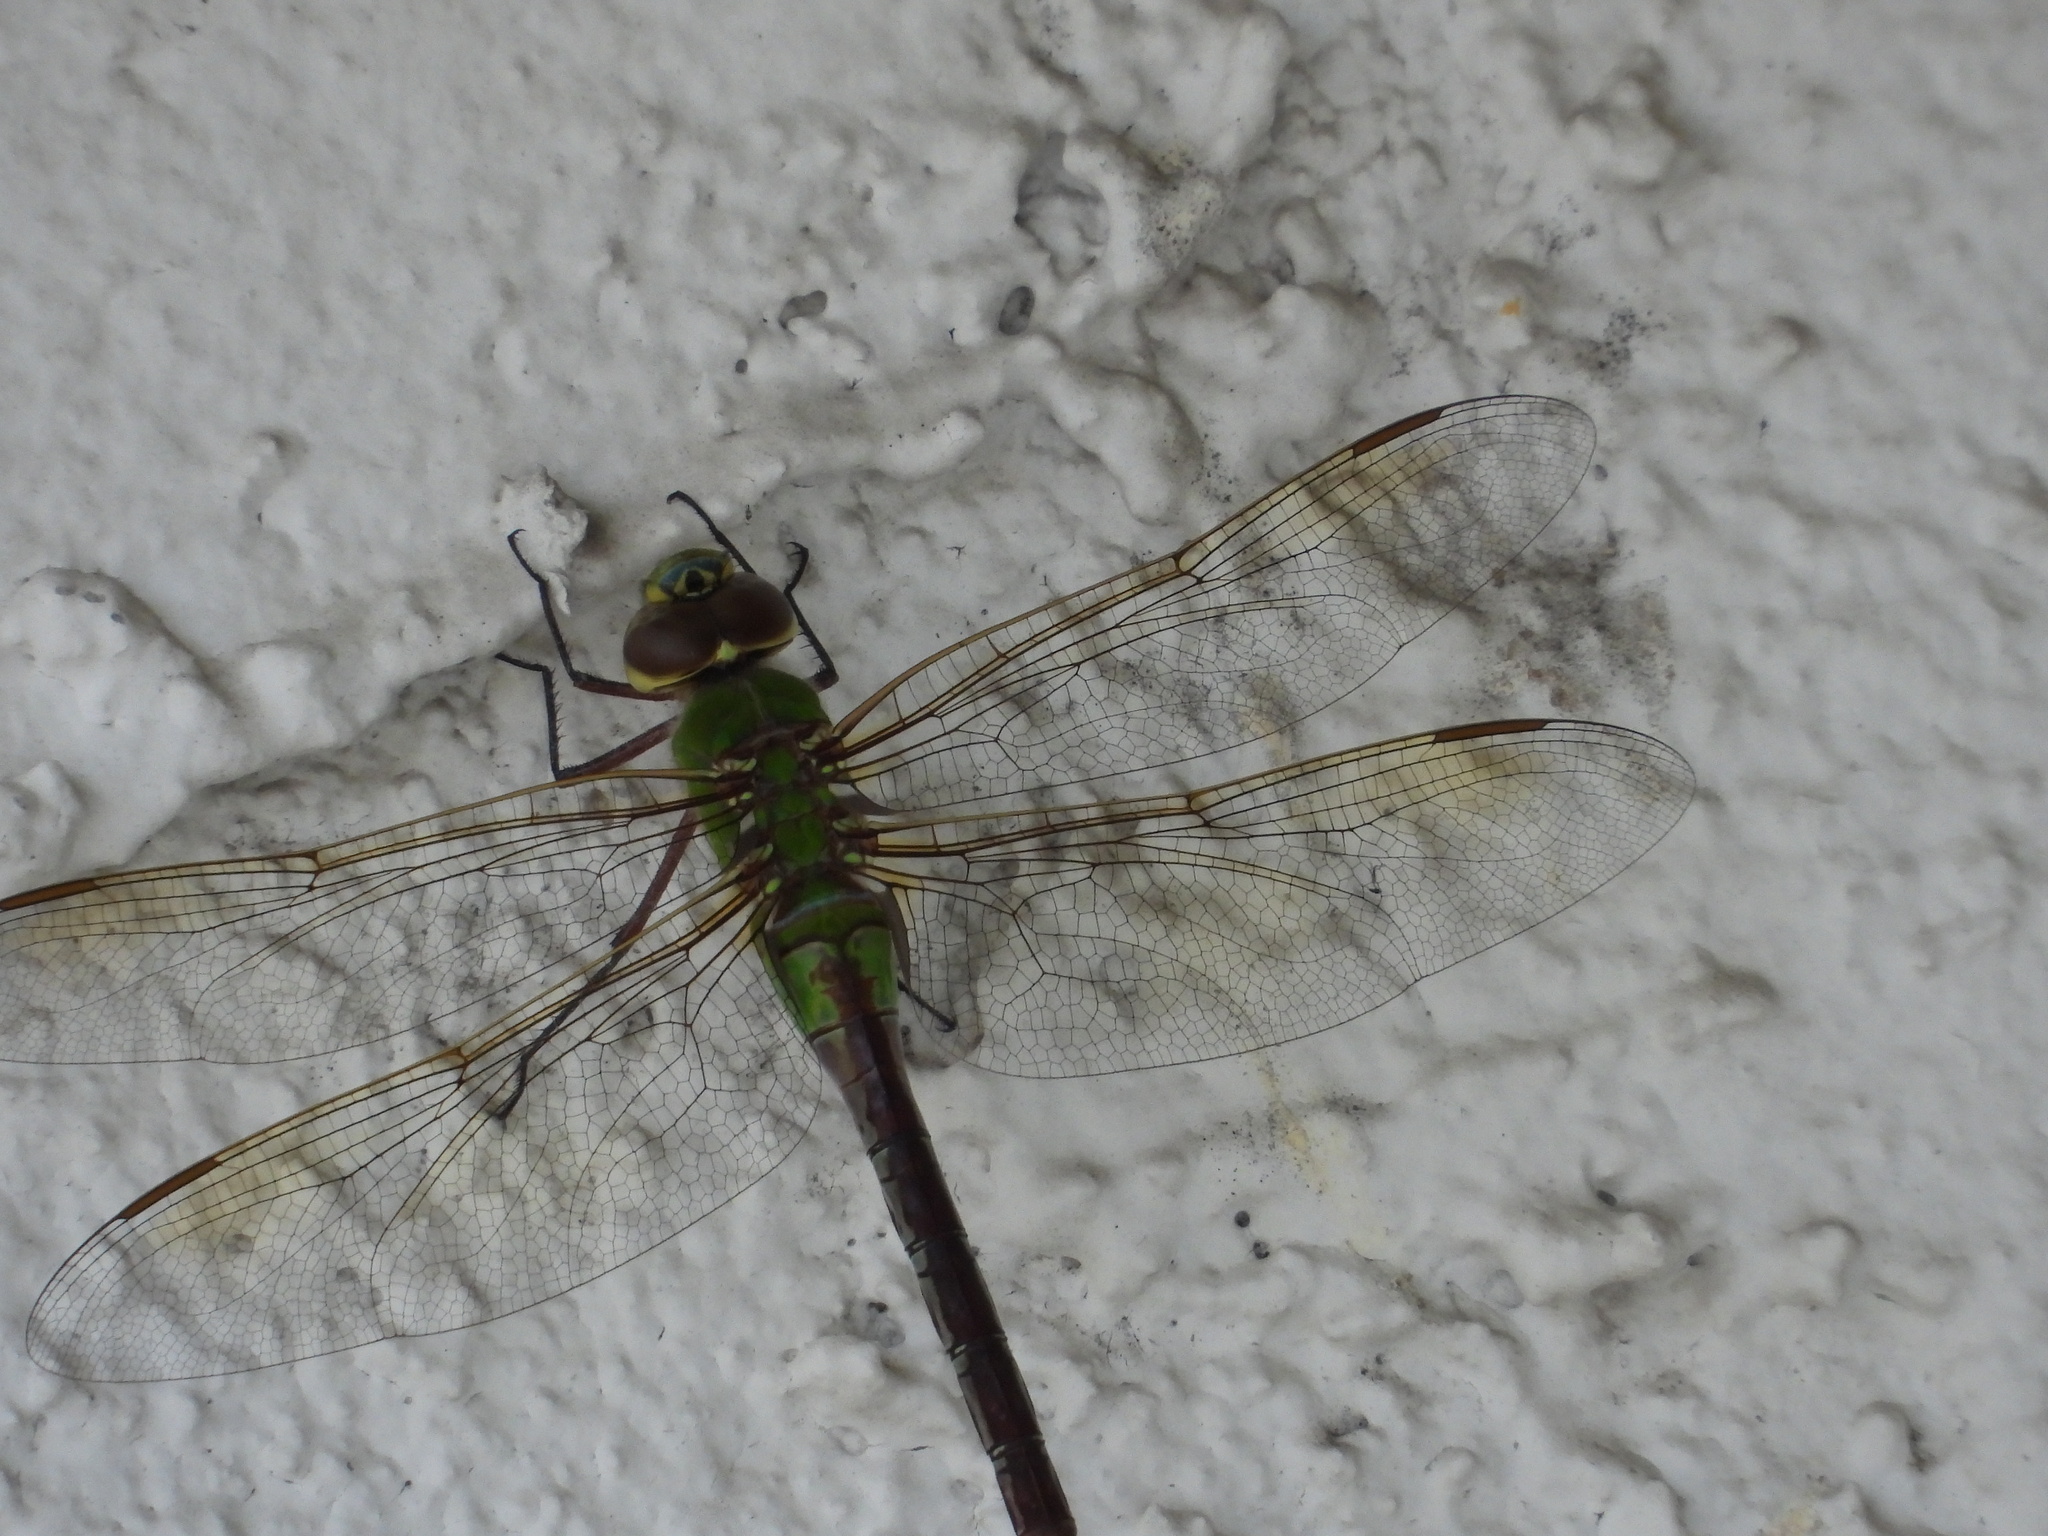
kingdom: Animalia
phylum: Arthropoda
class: Insecta
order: Odonata
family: Aeshnidae
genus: Anax
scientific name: Anax junius
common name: Common green darner
